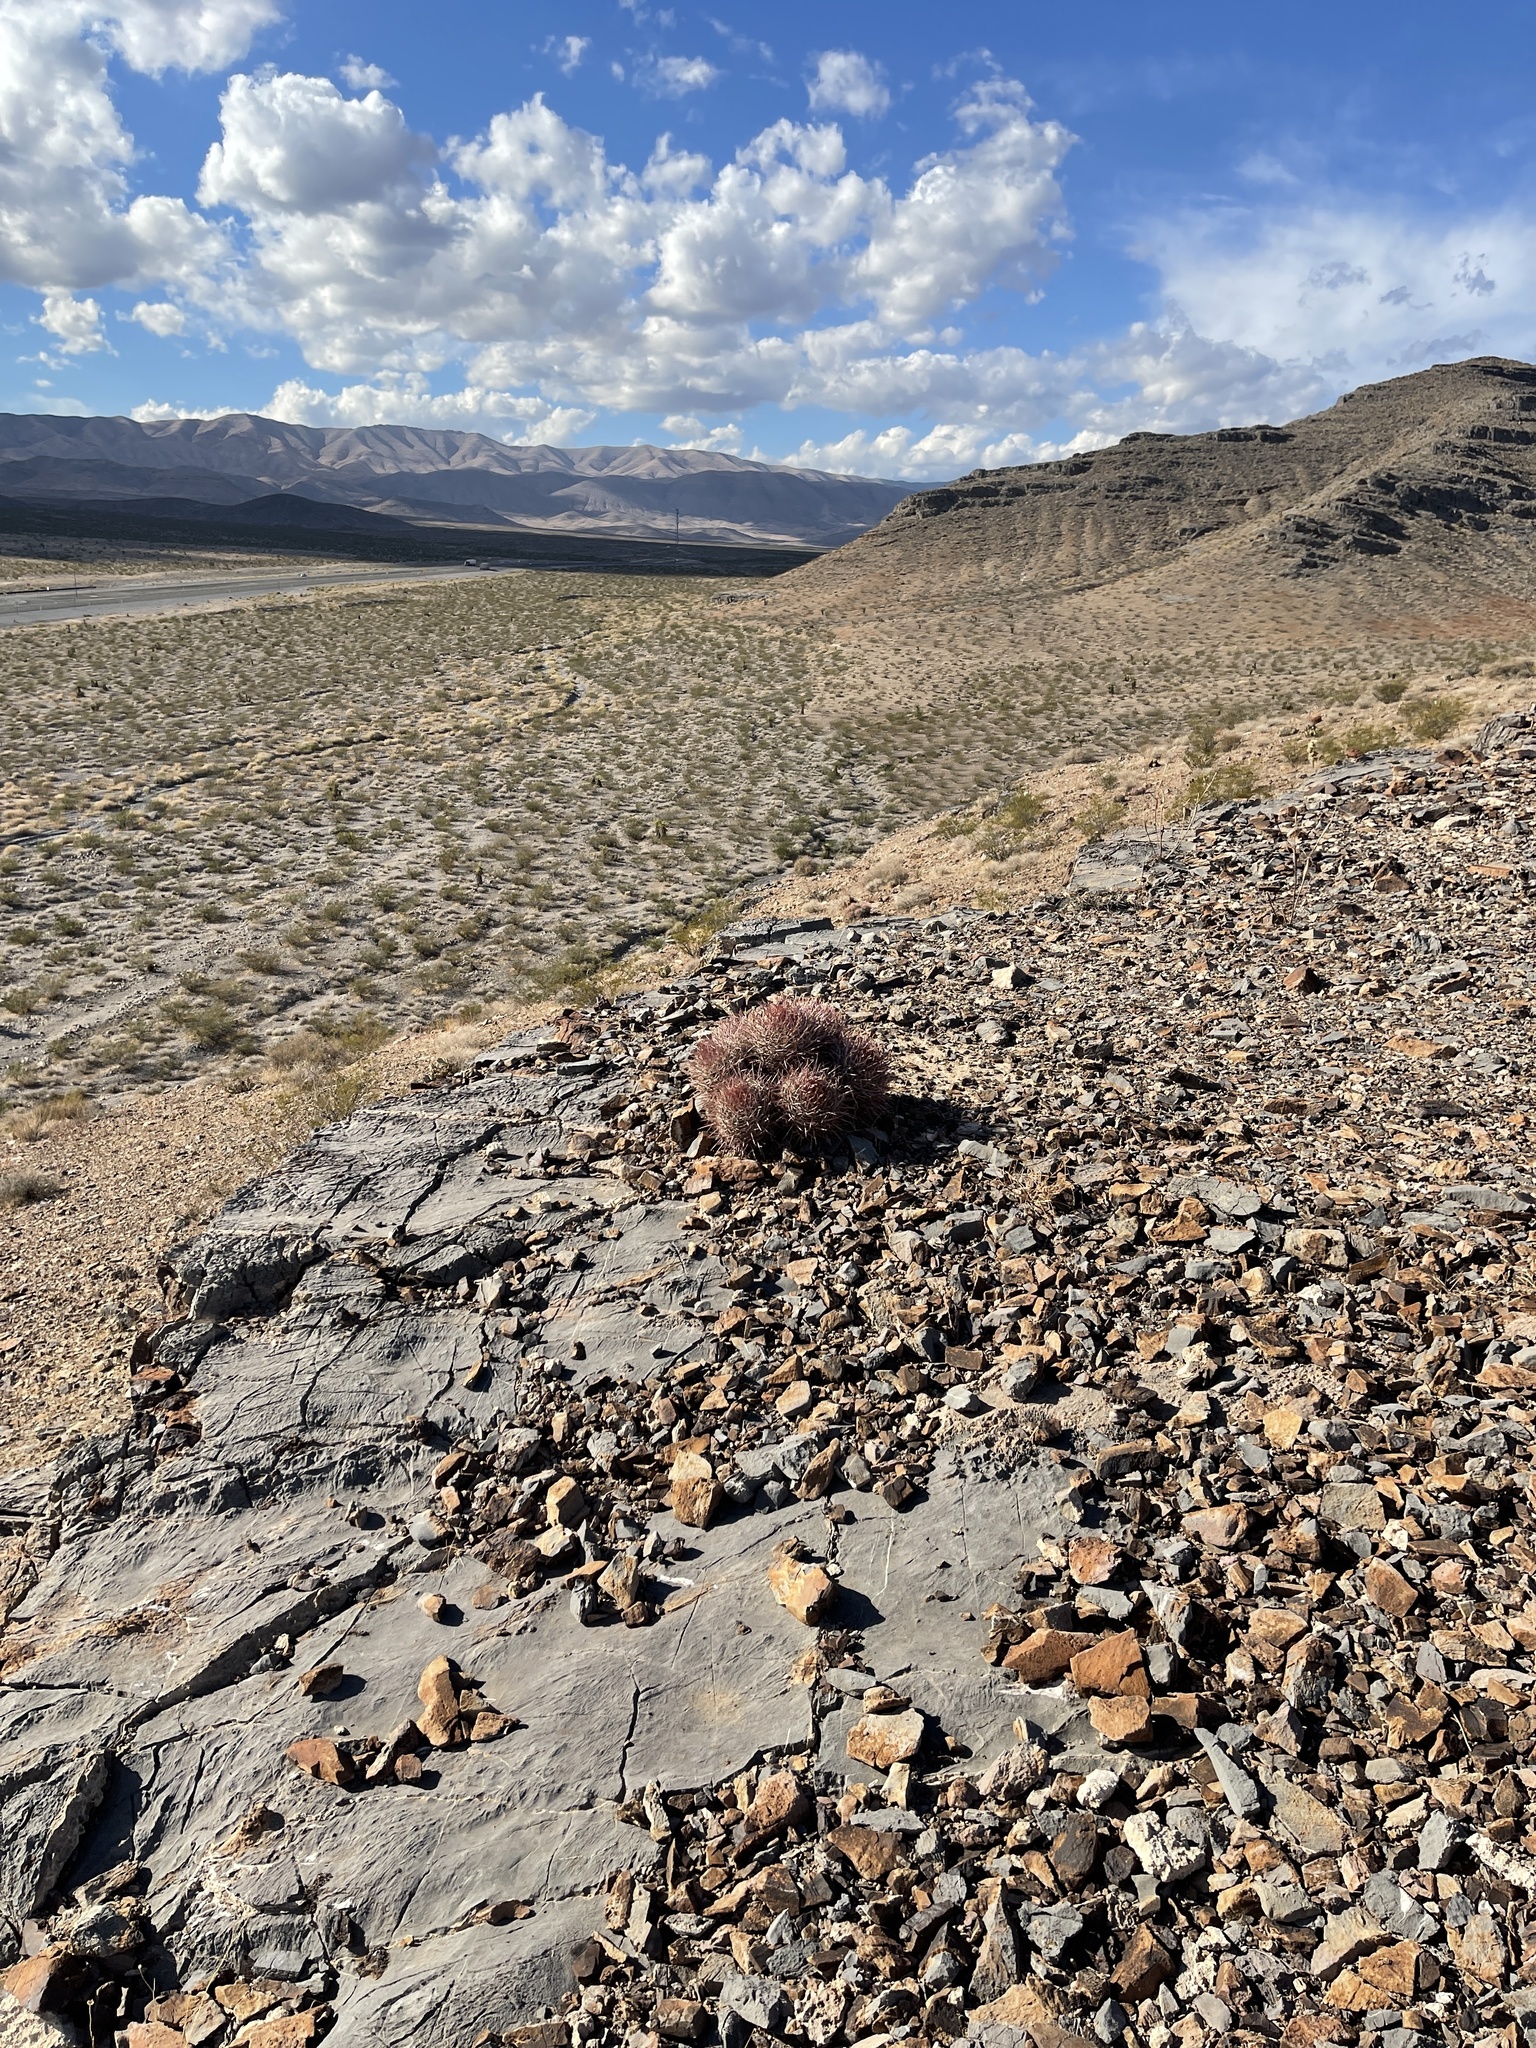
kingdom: Plantae
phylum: Tracheophyta
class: Magnoliopsida
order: Caryophyllales
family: Cactaceae
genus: Echinocactus
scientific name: Echinocactus polycephalus
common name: Cottontop cactus
